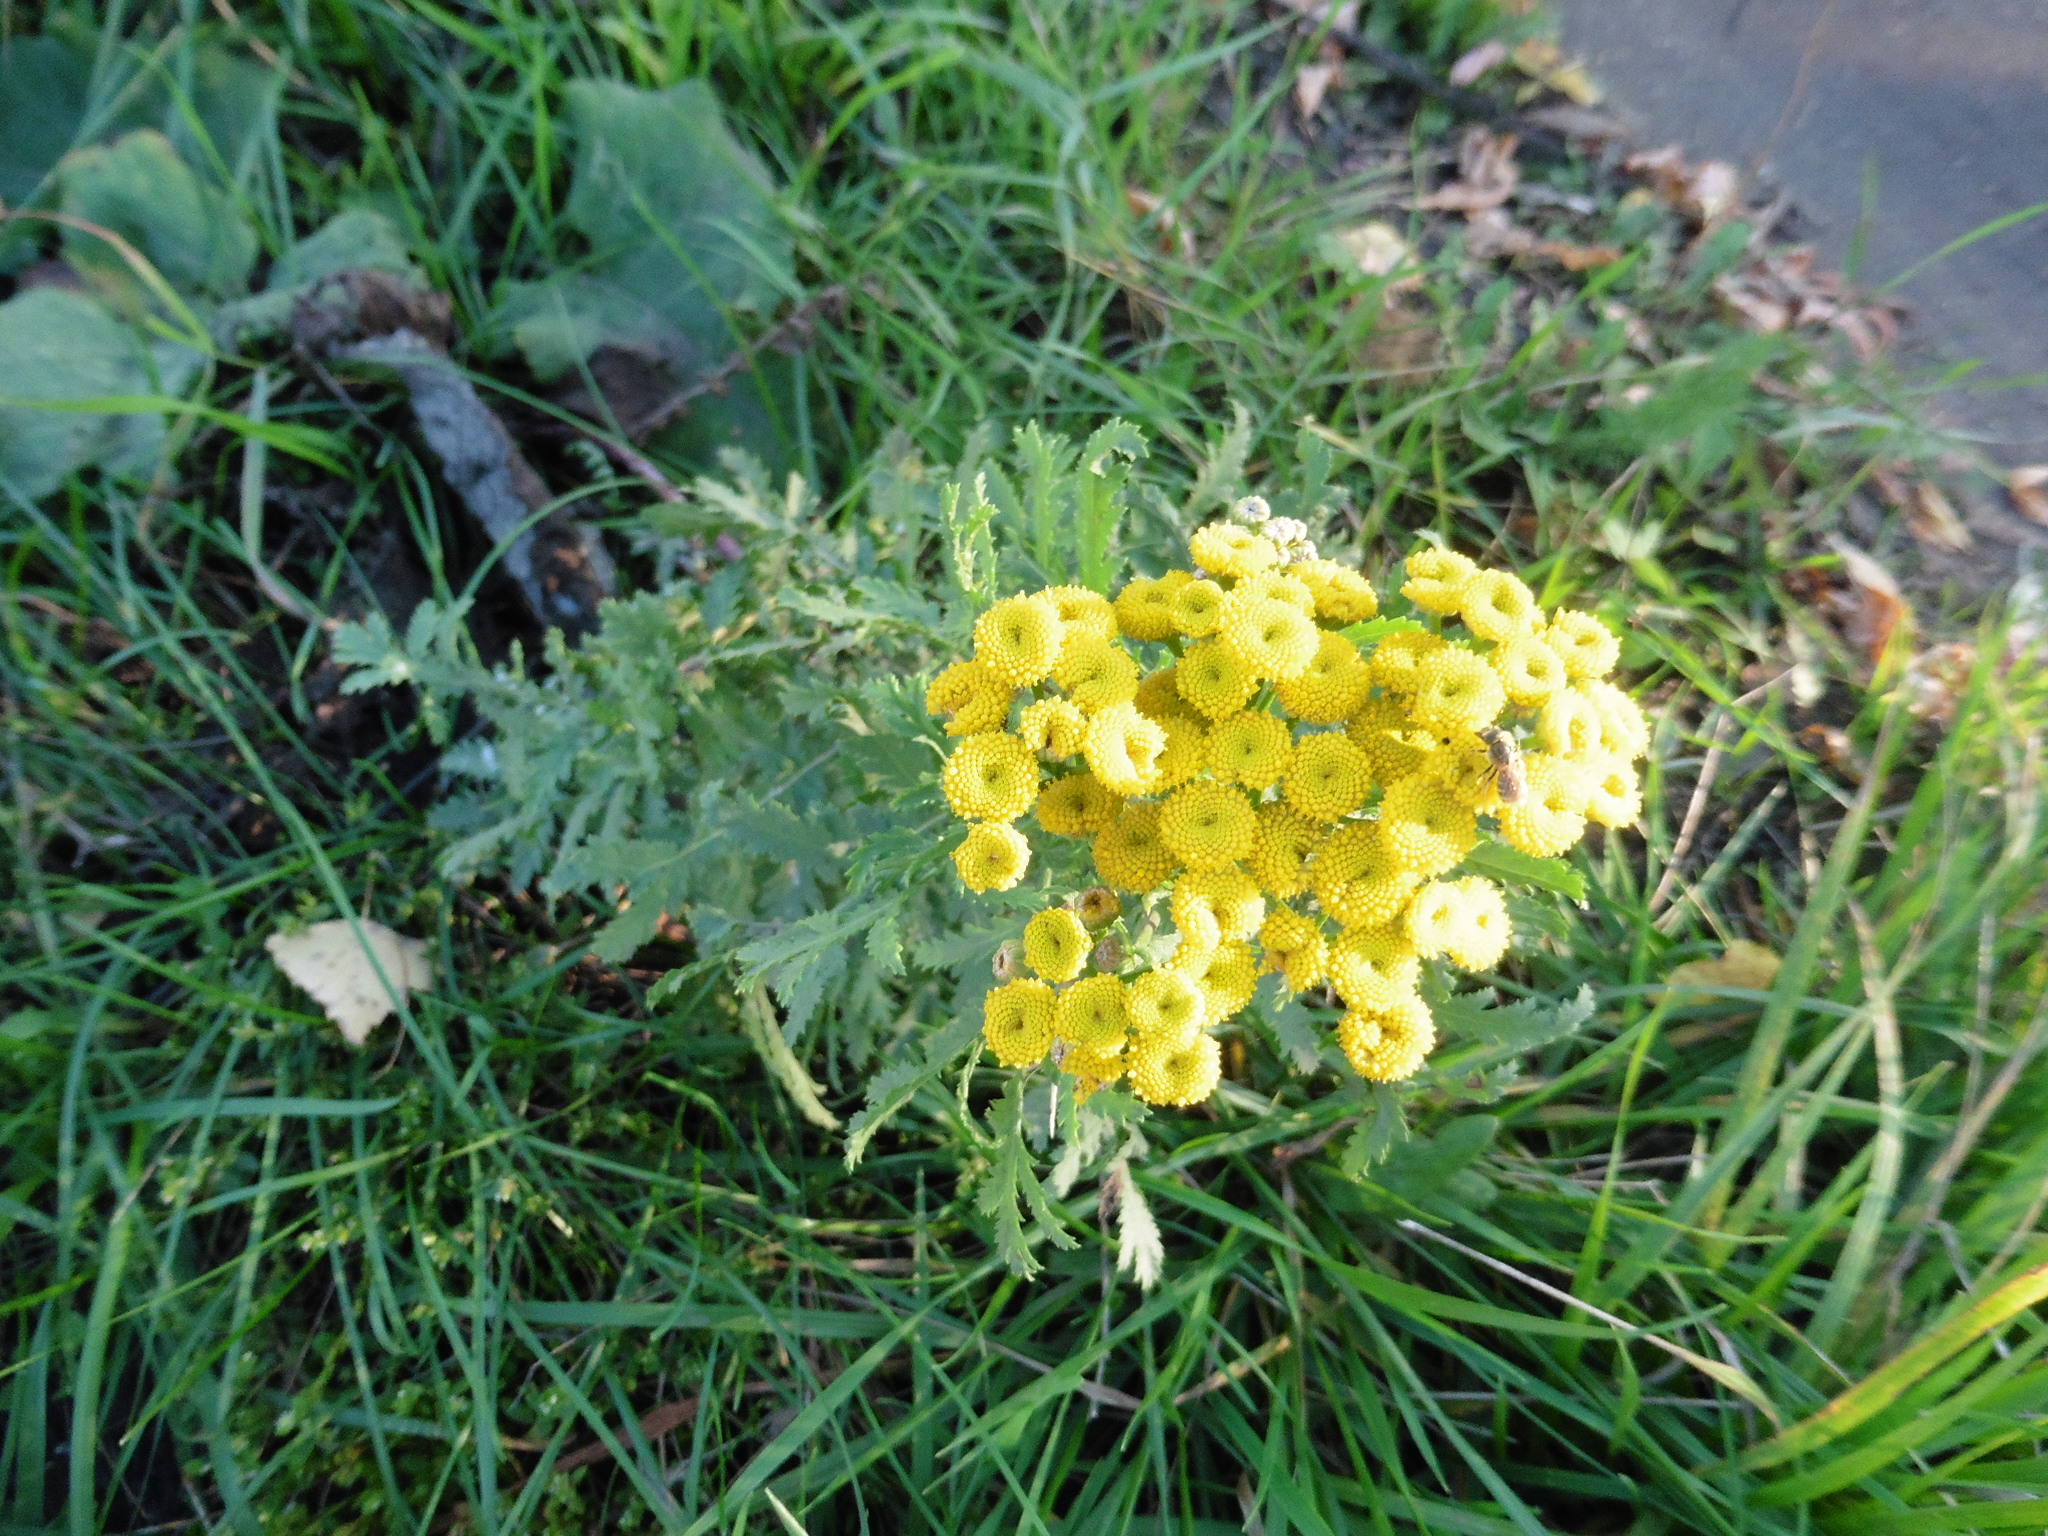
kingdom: Plantae
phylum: Tracheophyta
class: Magnoliopsida
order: Asterales
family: Asteraceae
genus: Tanacetum
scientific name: Tanacetum vulgare
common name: Common tansy
